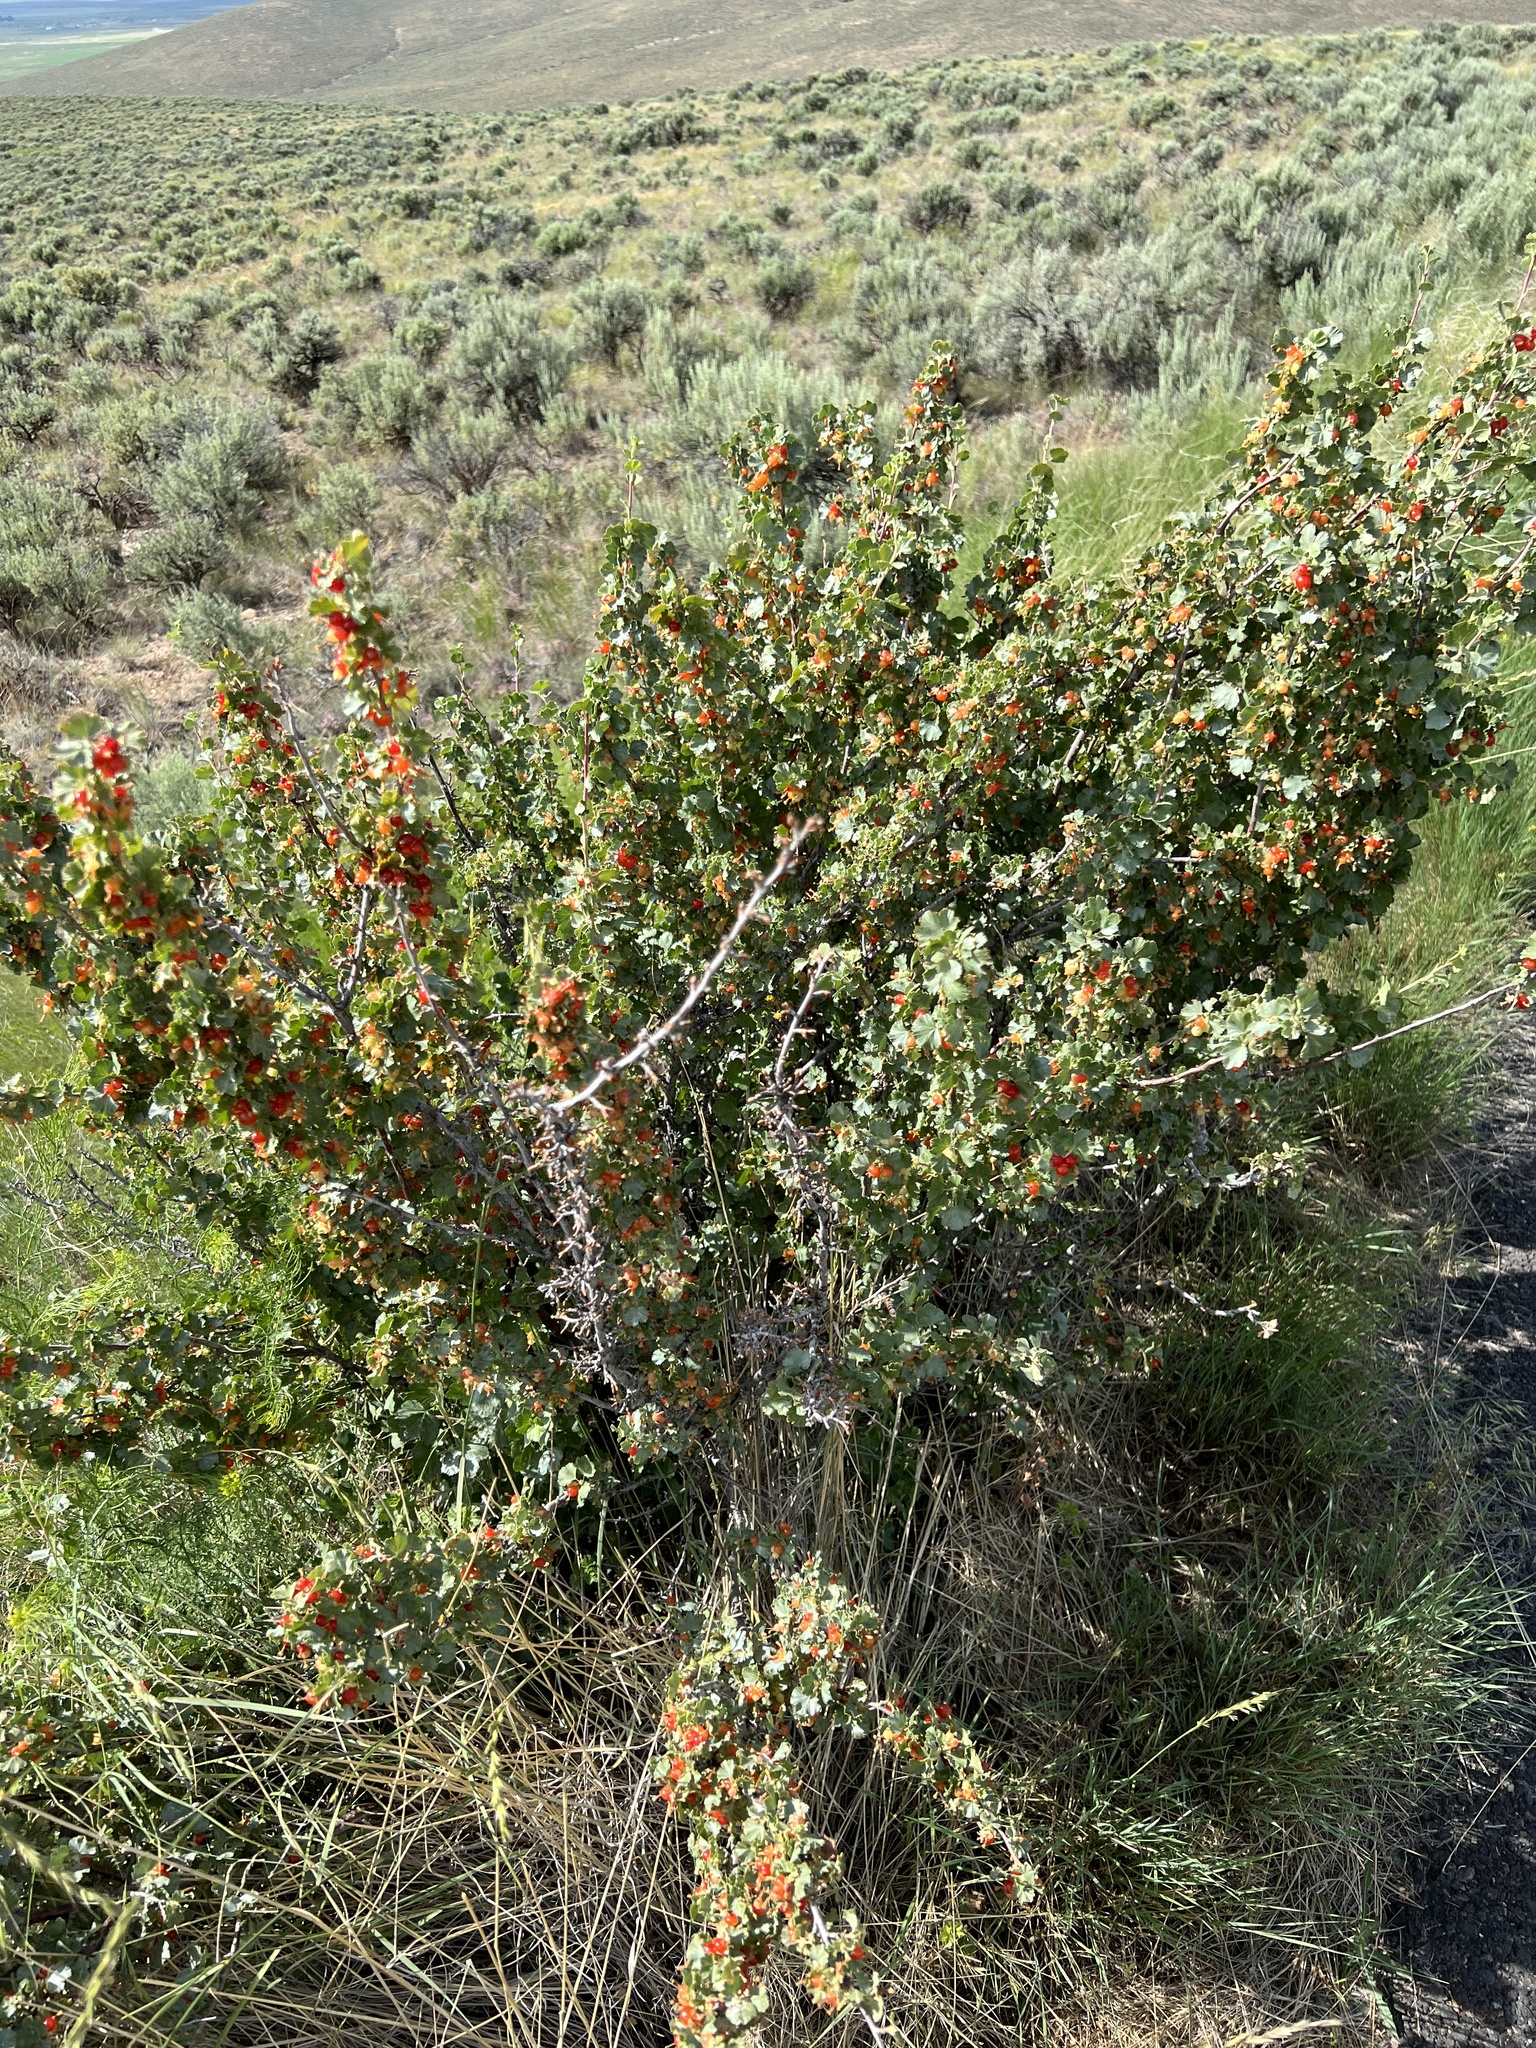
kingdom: Plantae
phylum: Tracheophyta
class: Magnoliopsida
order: Saxifragales
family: Grossulariaceae
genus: Ribes
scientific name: Ribes cereum
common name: Wax currant
